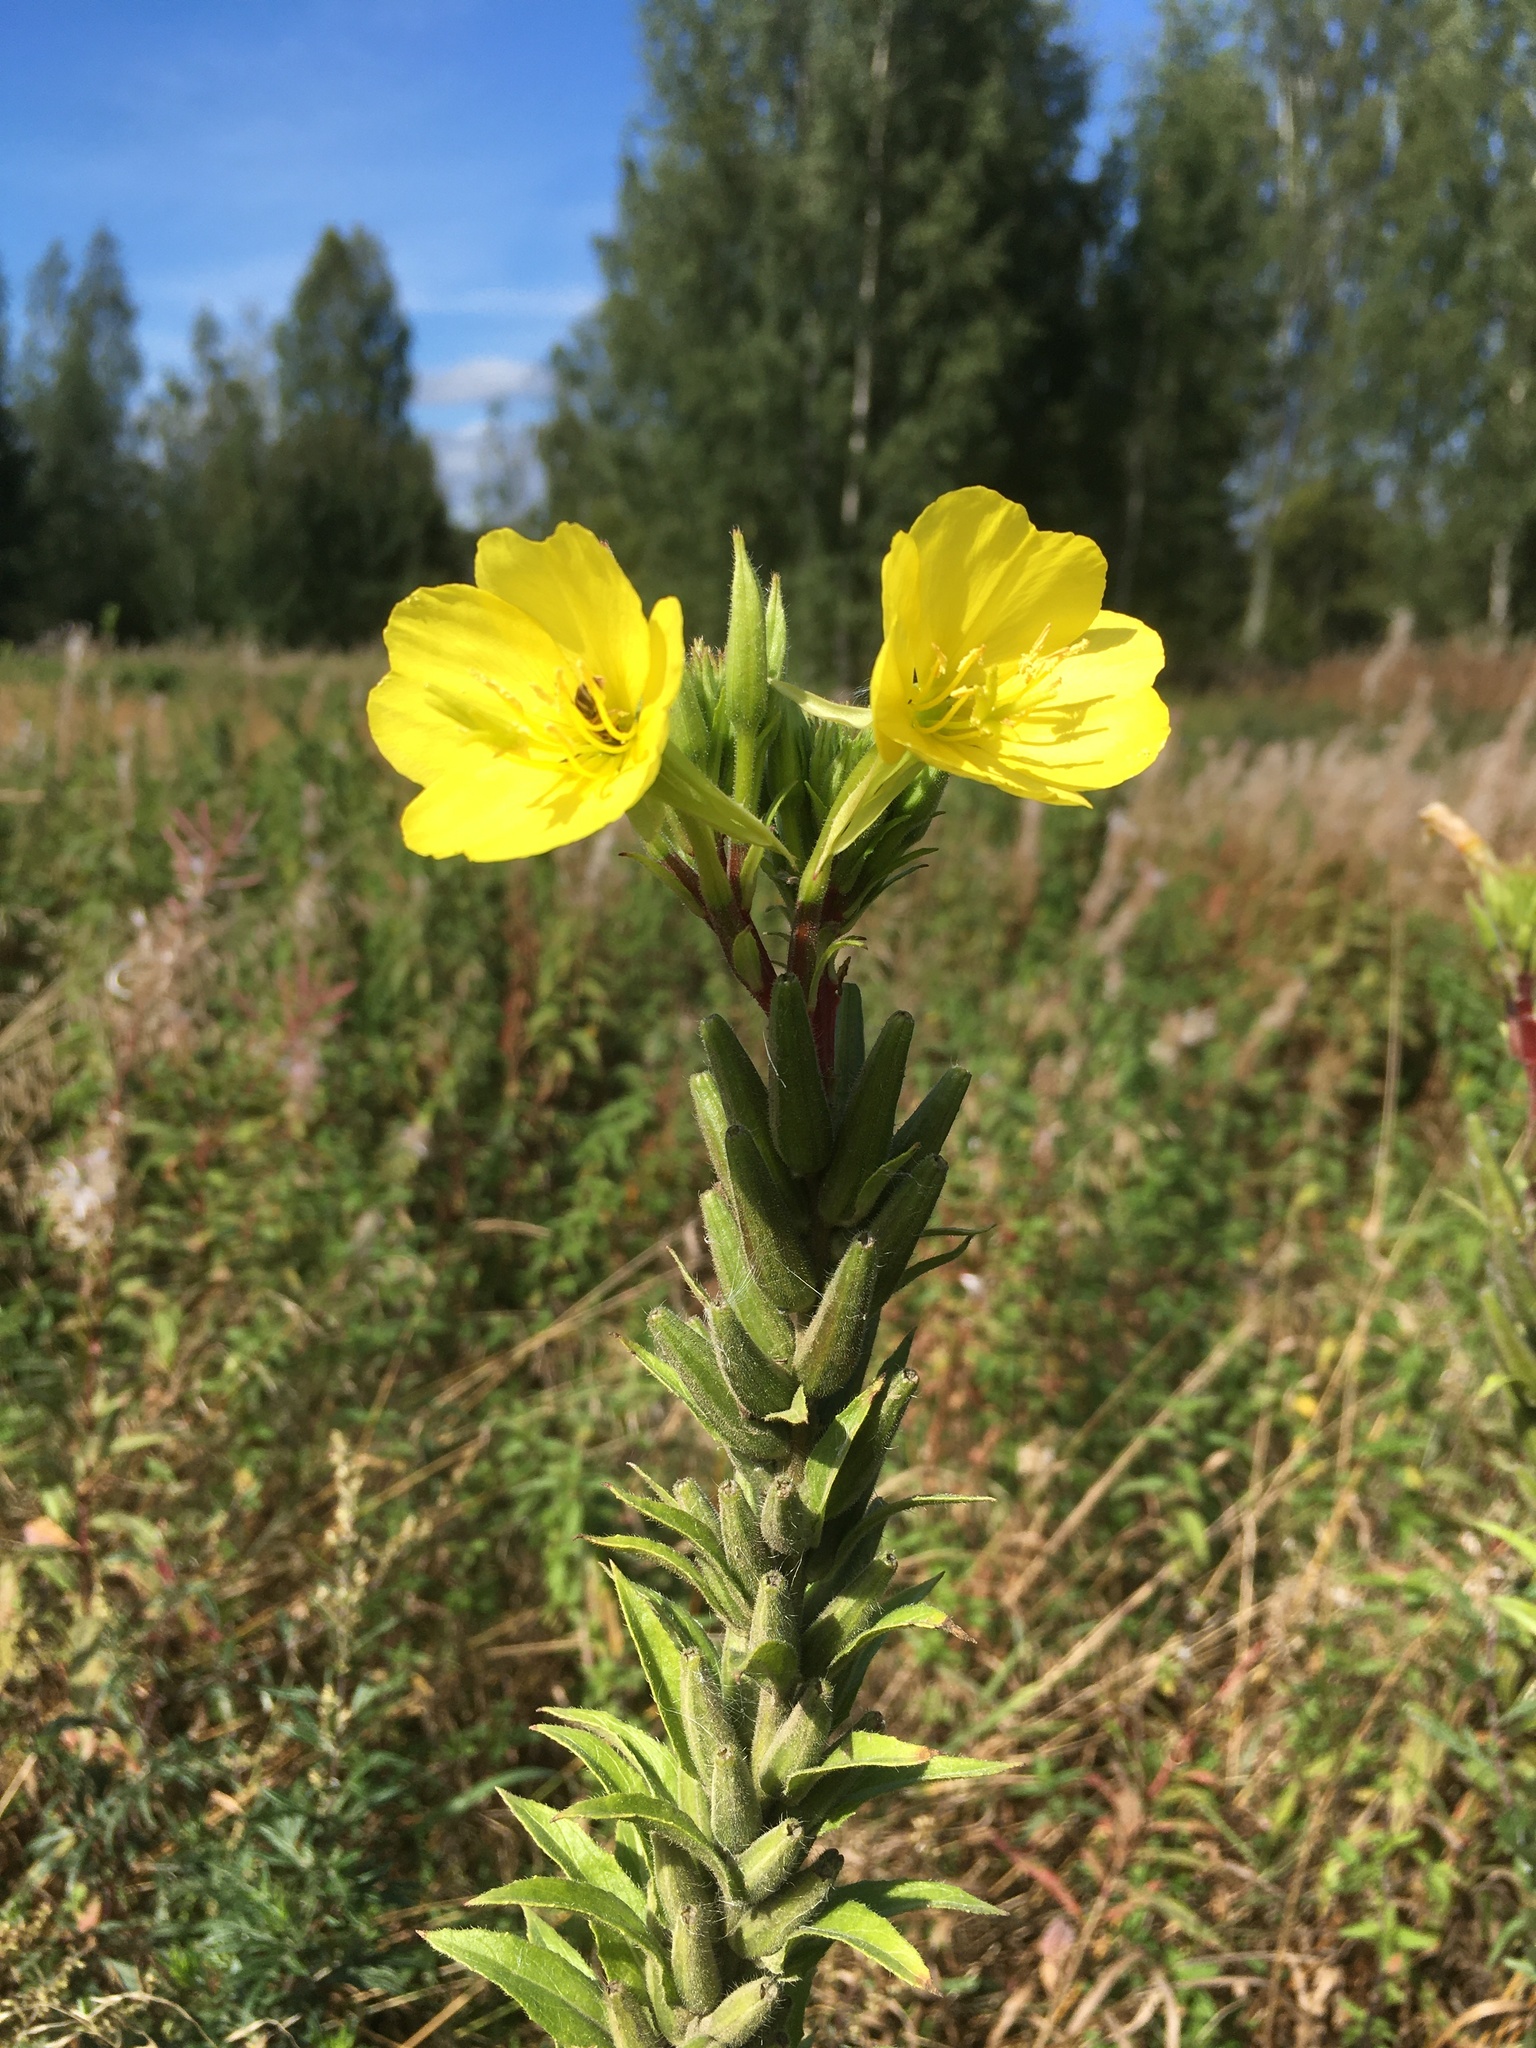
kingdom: Plantae
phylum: Tracheophyta
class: Magnoliopsida
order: Myrtales
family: Onagraceae
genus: Oenothera
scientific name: Oenothera rubricaulis
